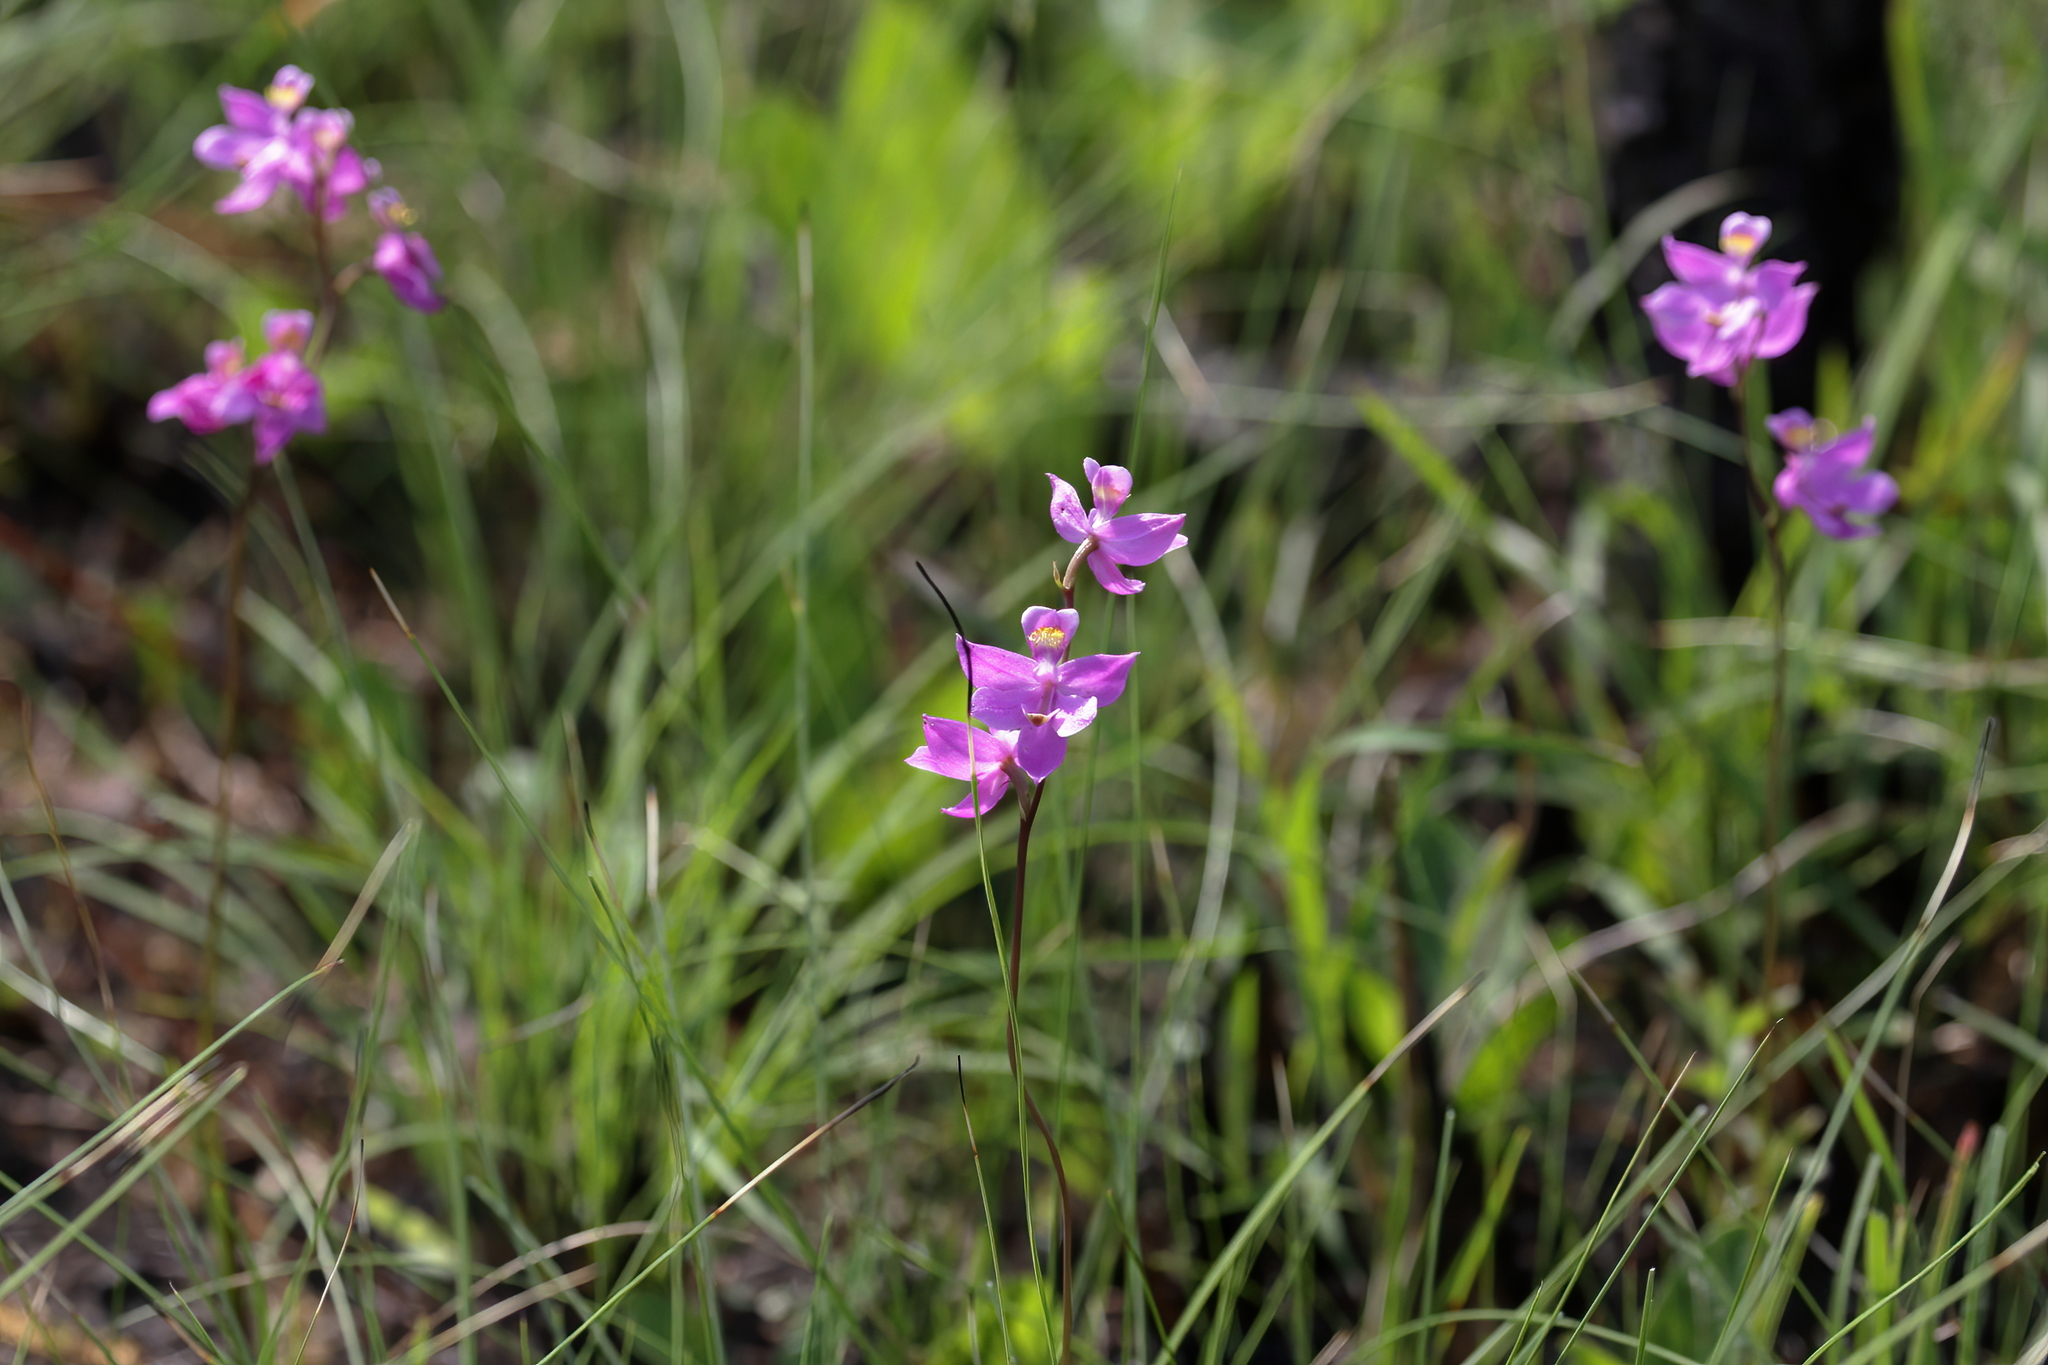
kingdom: Plantae
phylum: Tracheophyta
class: Liliopsida
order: Asparagales
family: Orchidaceae
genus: Calopogon
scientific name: Calopogon multiflorus
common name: Many-flowered grass-pink orchid
